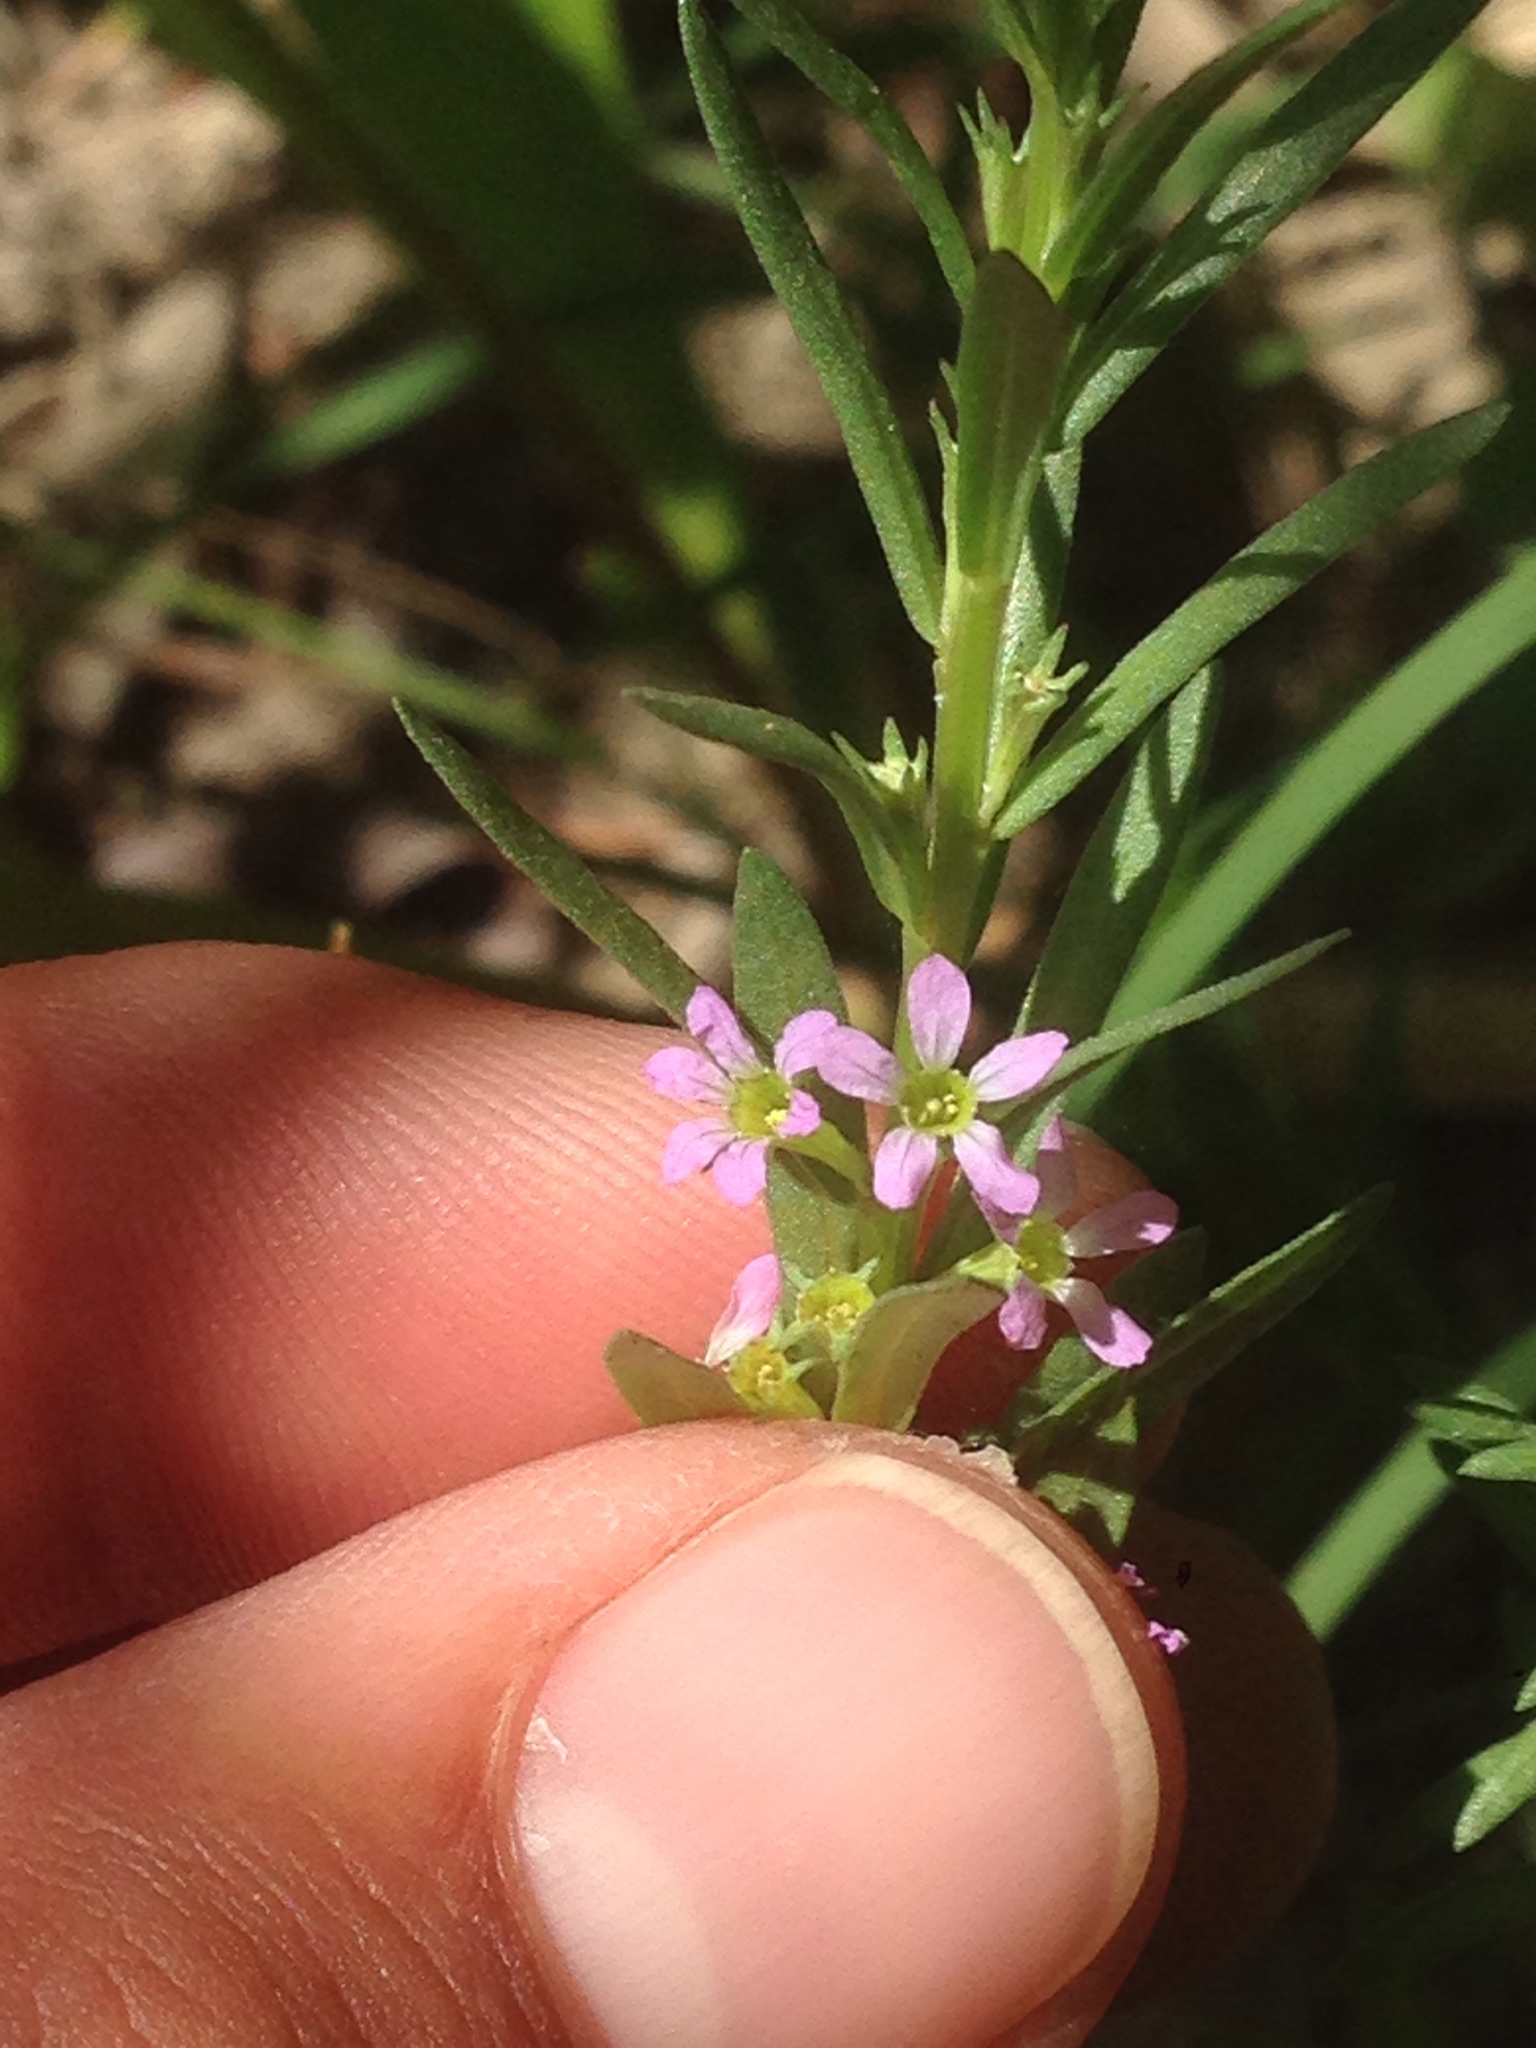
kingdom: Plantae
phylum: Tracheophyta
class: Magnoliopsida
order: Myrtales
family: Lythraceae
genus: Lythrum
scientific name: Lythrum hyssopifolia
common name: Grass-poly
